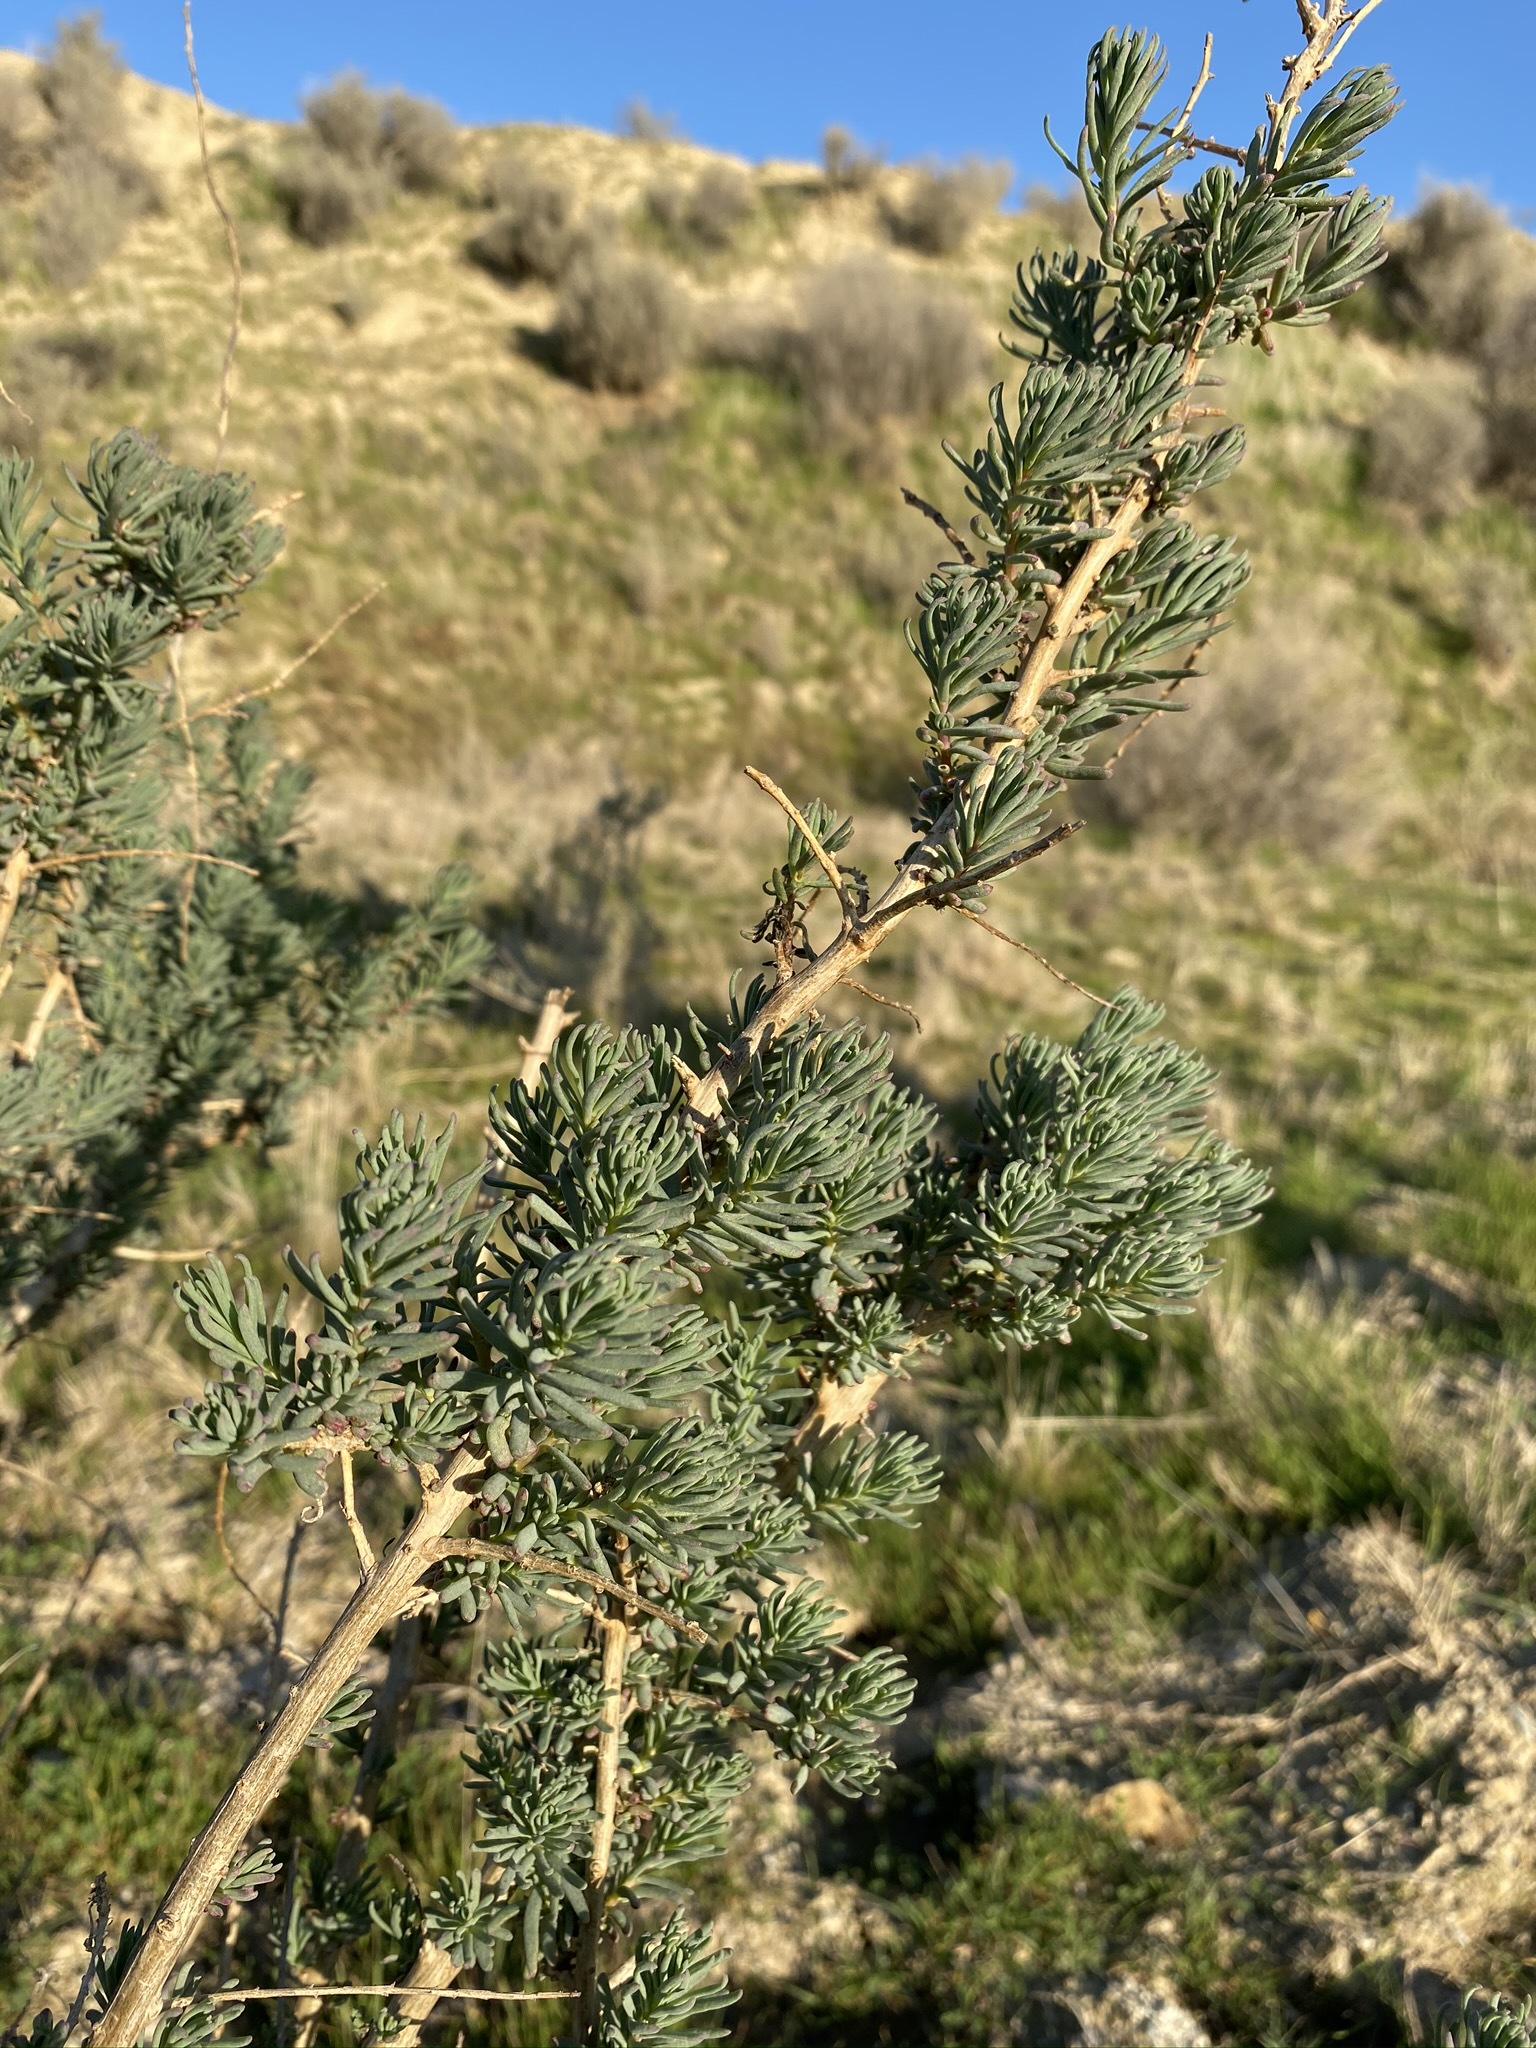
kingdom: Plantae
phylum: Tracheophyta
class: Magnoliopsida
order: Caryophyllales
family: Amaranthaceae
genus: Suaeda
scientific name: Suaeda nigra
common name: Bush seepweed
